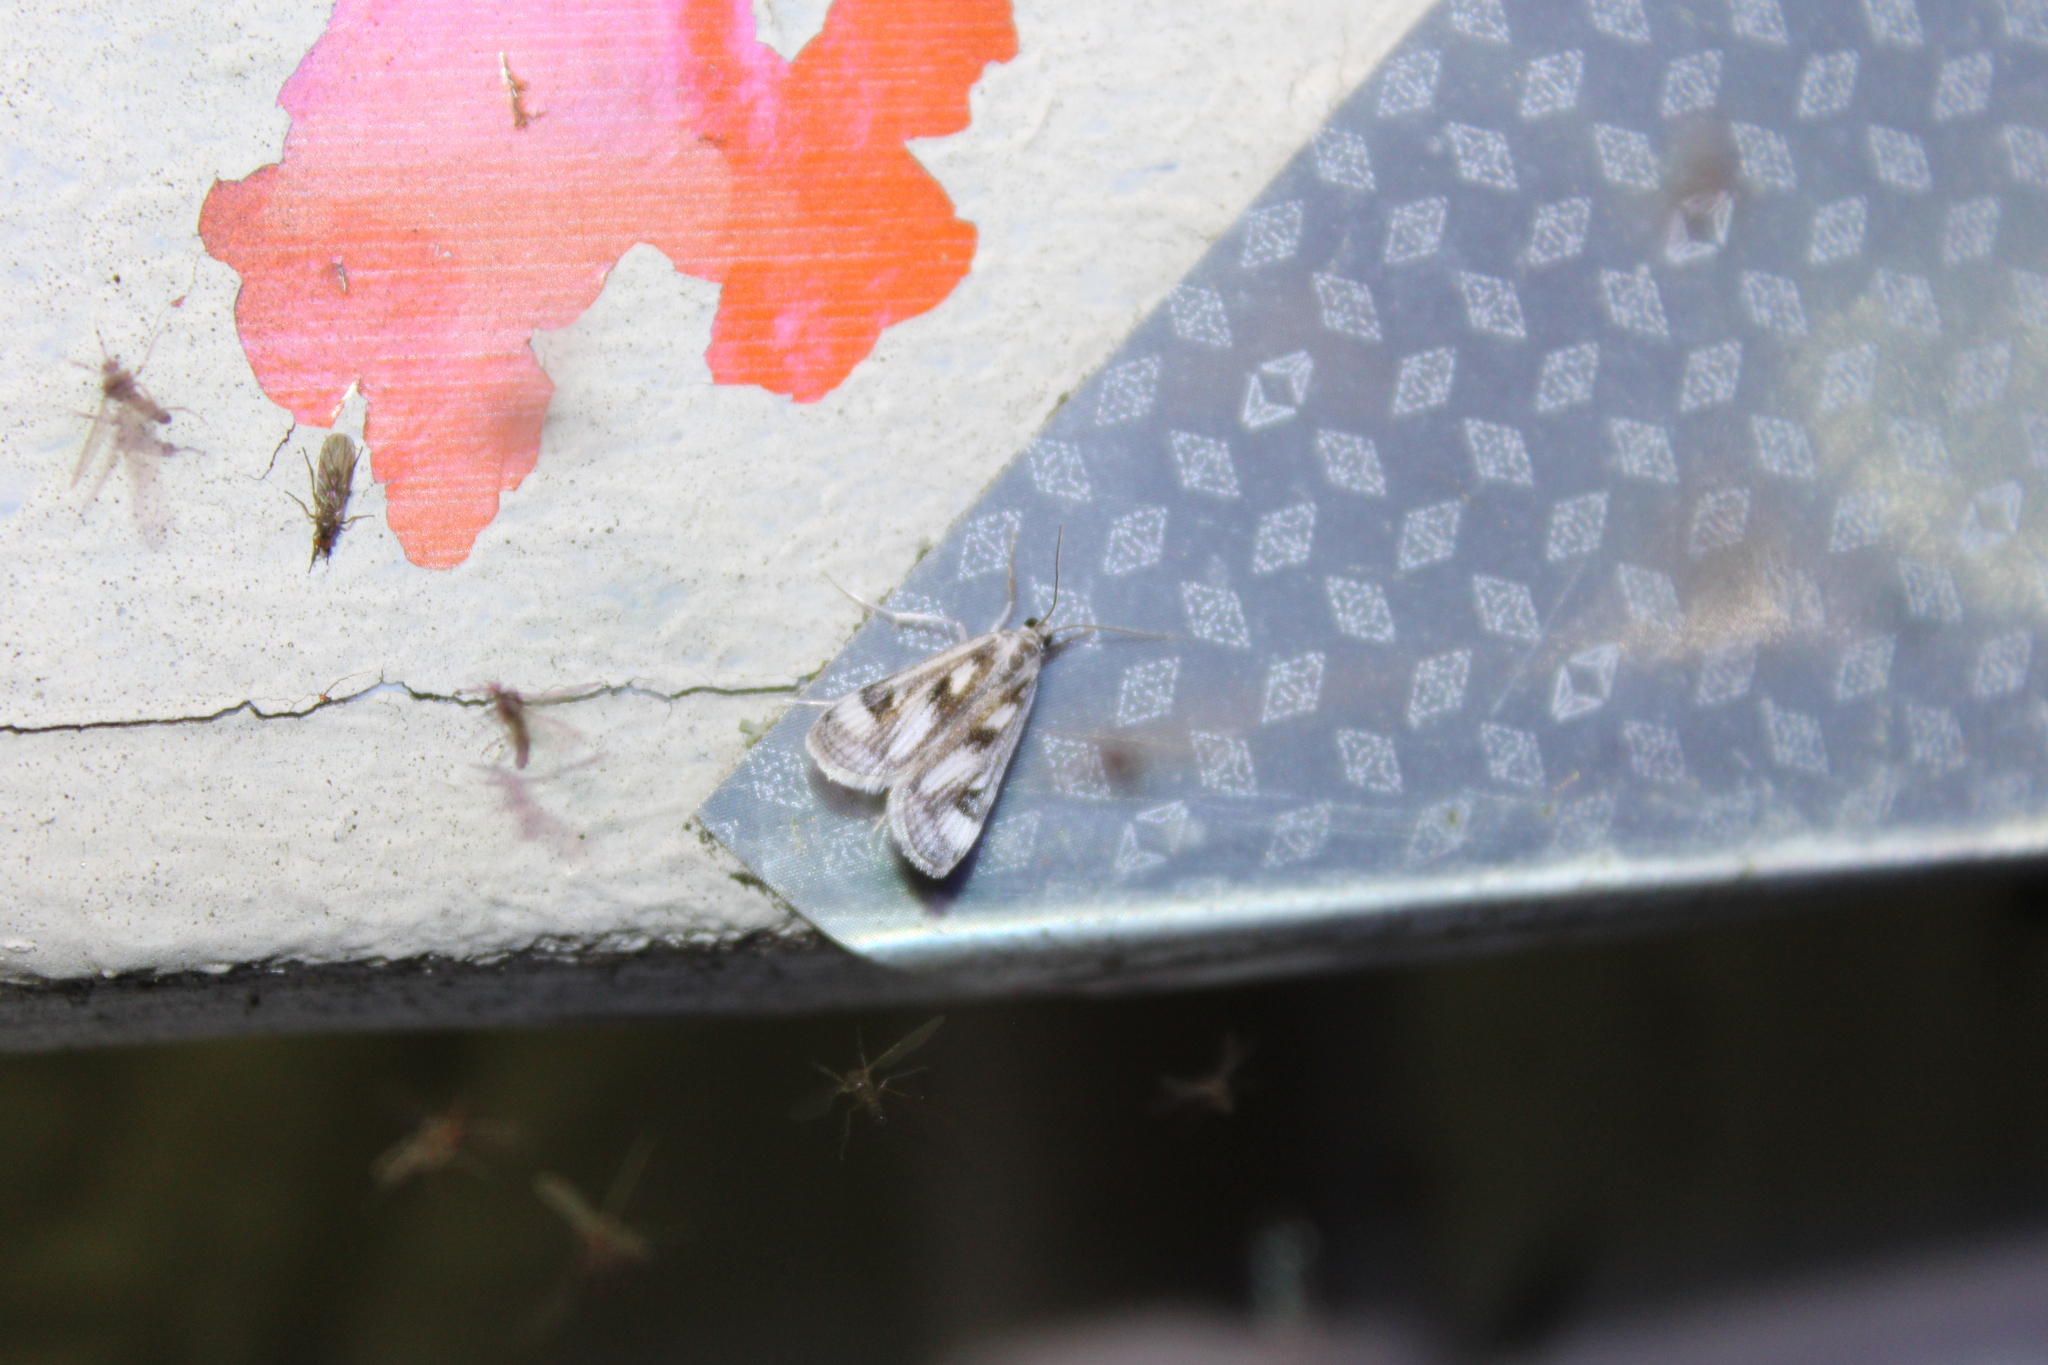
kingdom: Animalia
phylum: Arthropoda
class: Insecta
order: Lepidoptera
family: Crambidae
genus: Parapoynx
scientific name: Parapoynx maculalis
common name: Polymorphic pondweed moth
